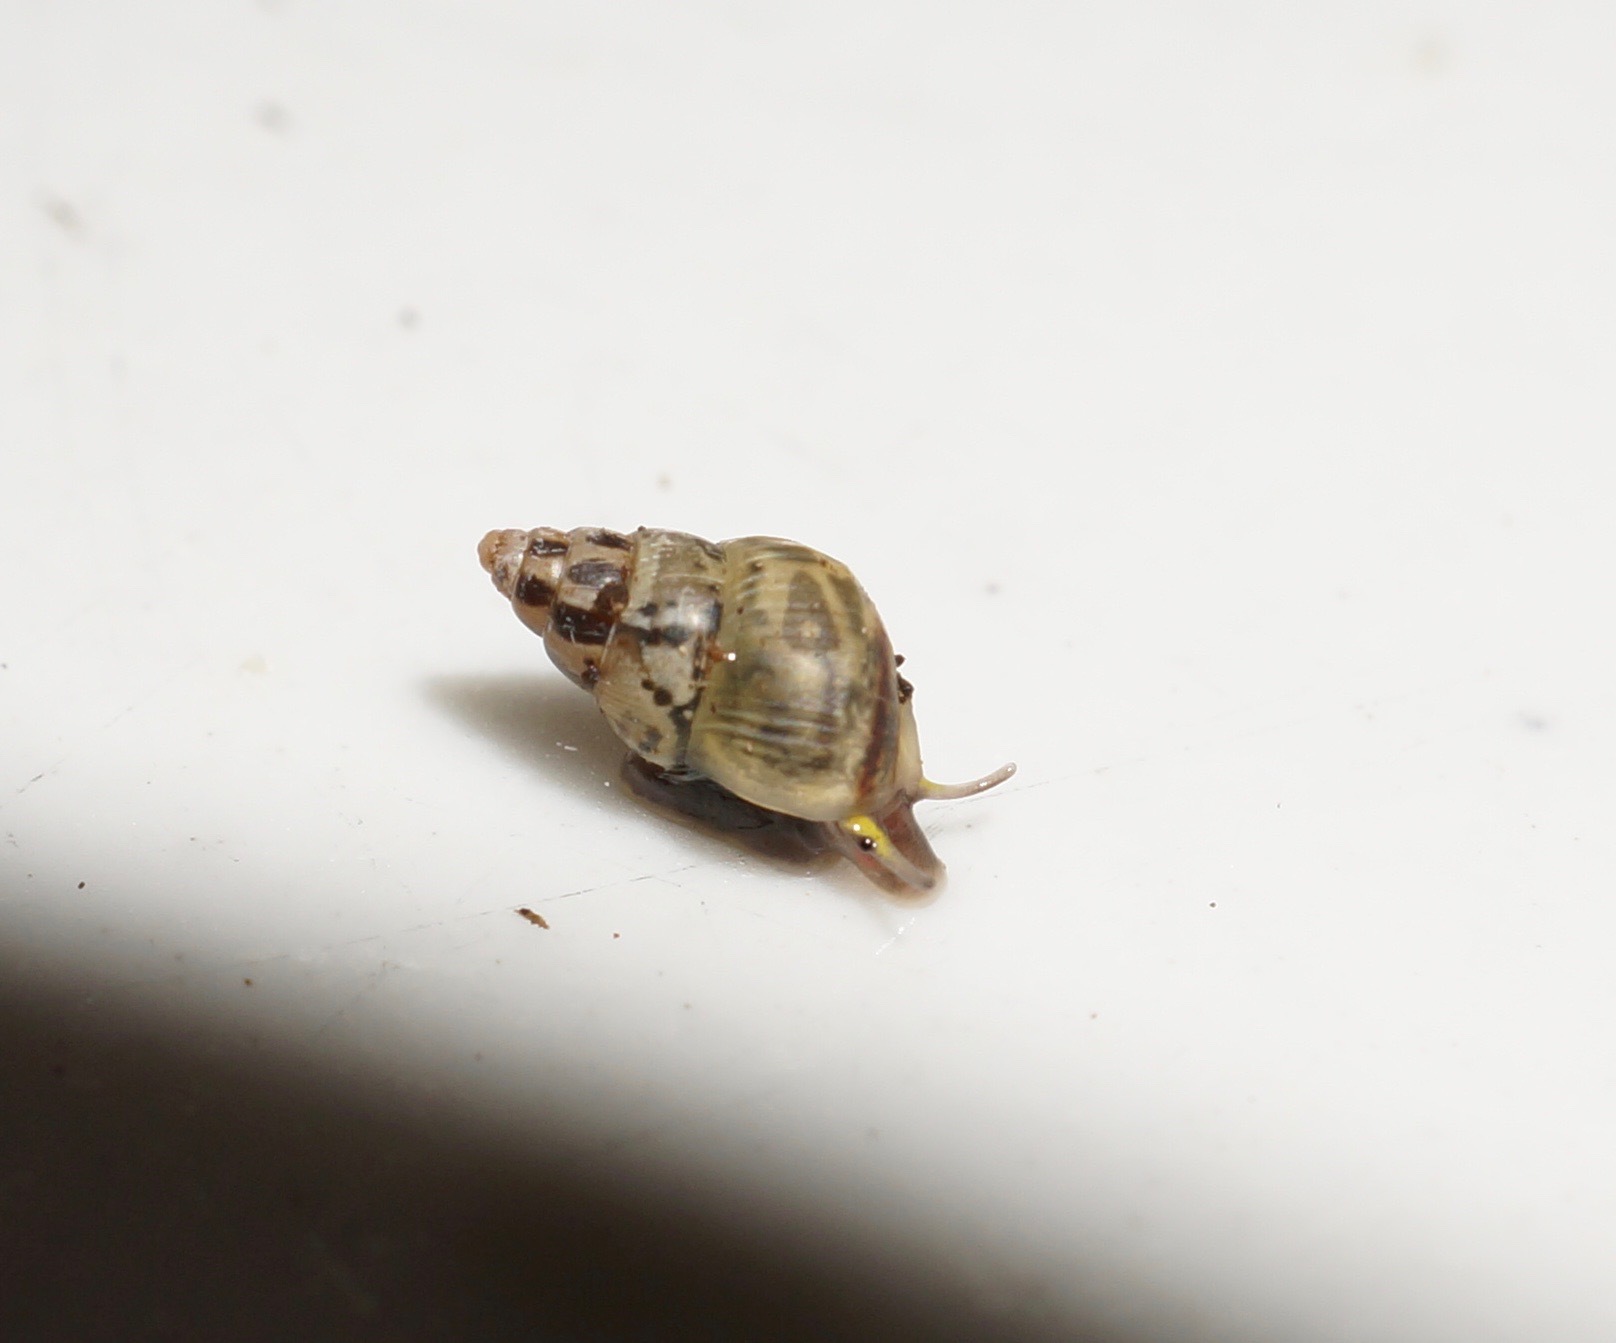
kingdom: Animalia
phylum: Mollusca
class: Gastropoda
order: Littorinimorpha
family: Assimineidae
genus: Telmosena
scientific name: Telmosena suteri
